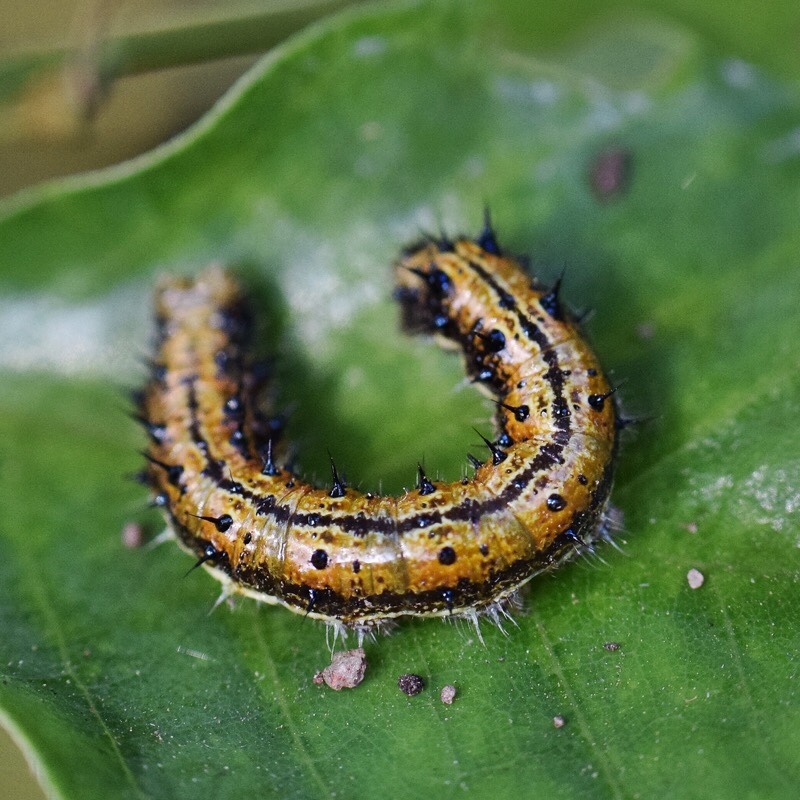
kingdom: Animalia
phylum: Arthropoda
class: Insecta
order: Lepidoptera
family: Nymphalidae
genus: Asterope
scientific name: Asterope boisduvali
